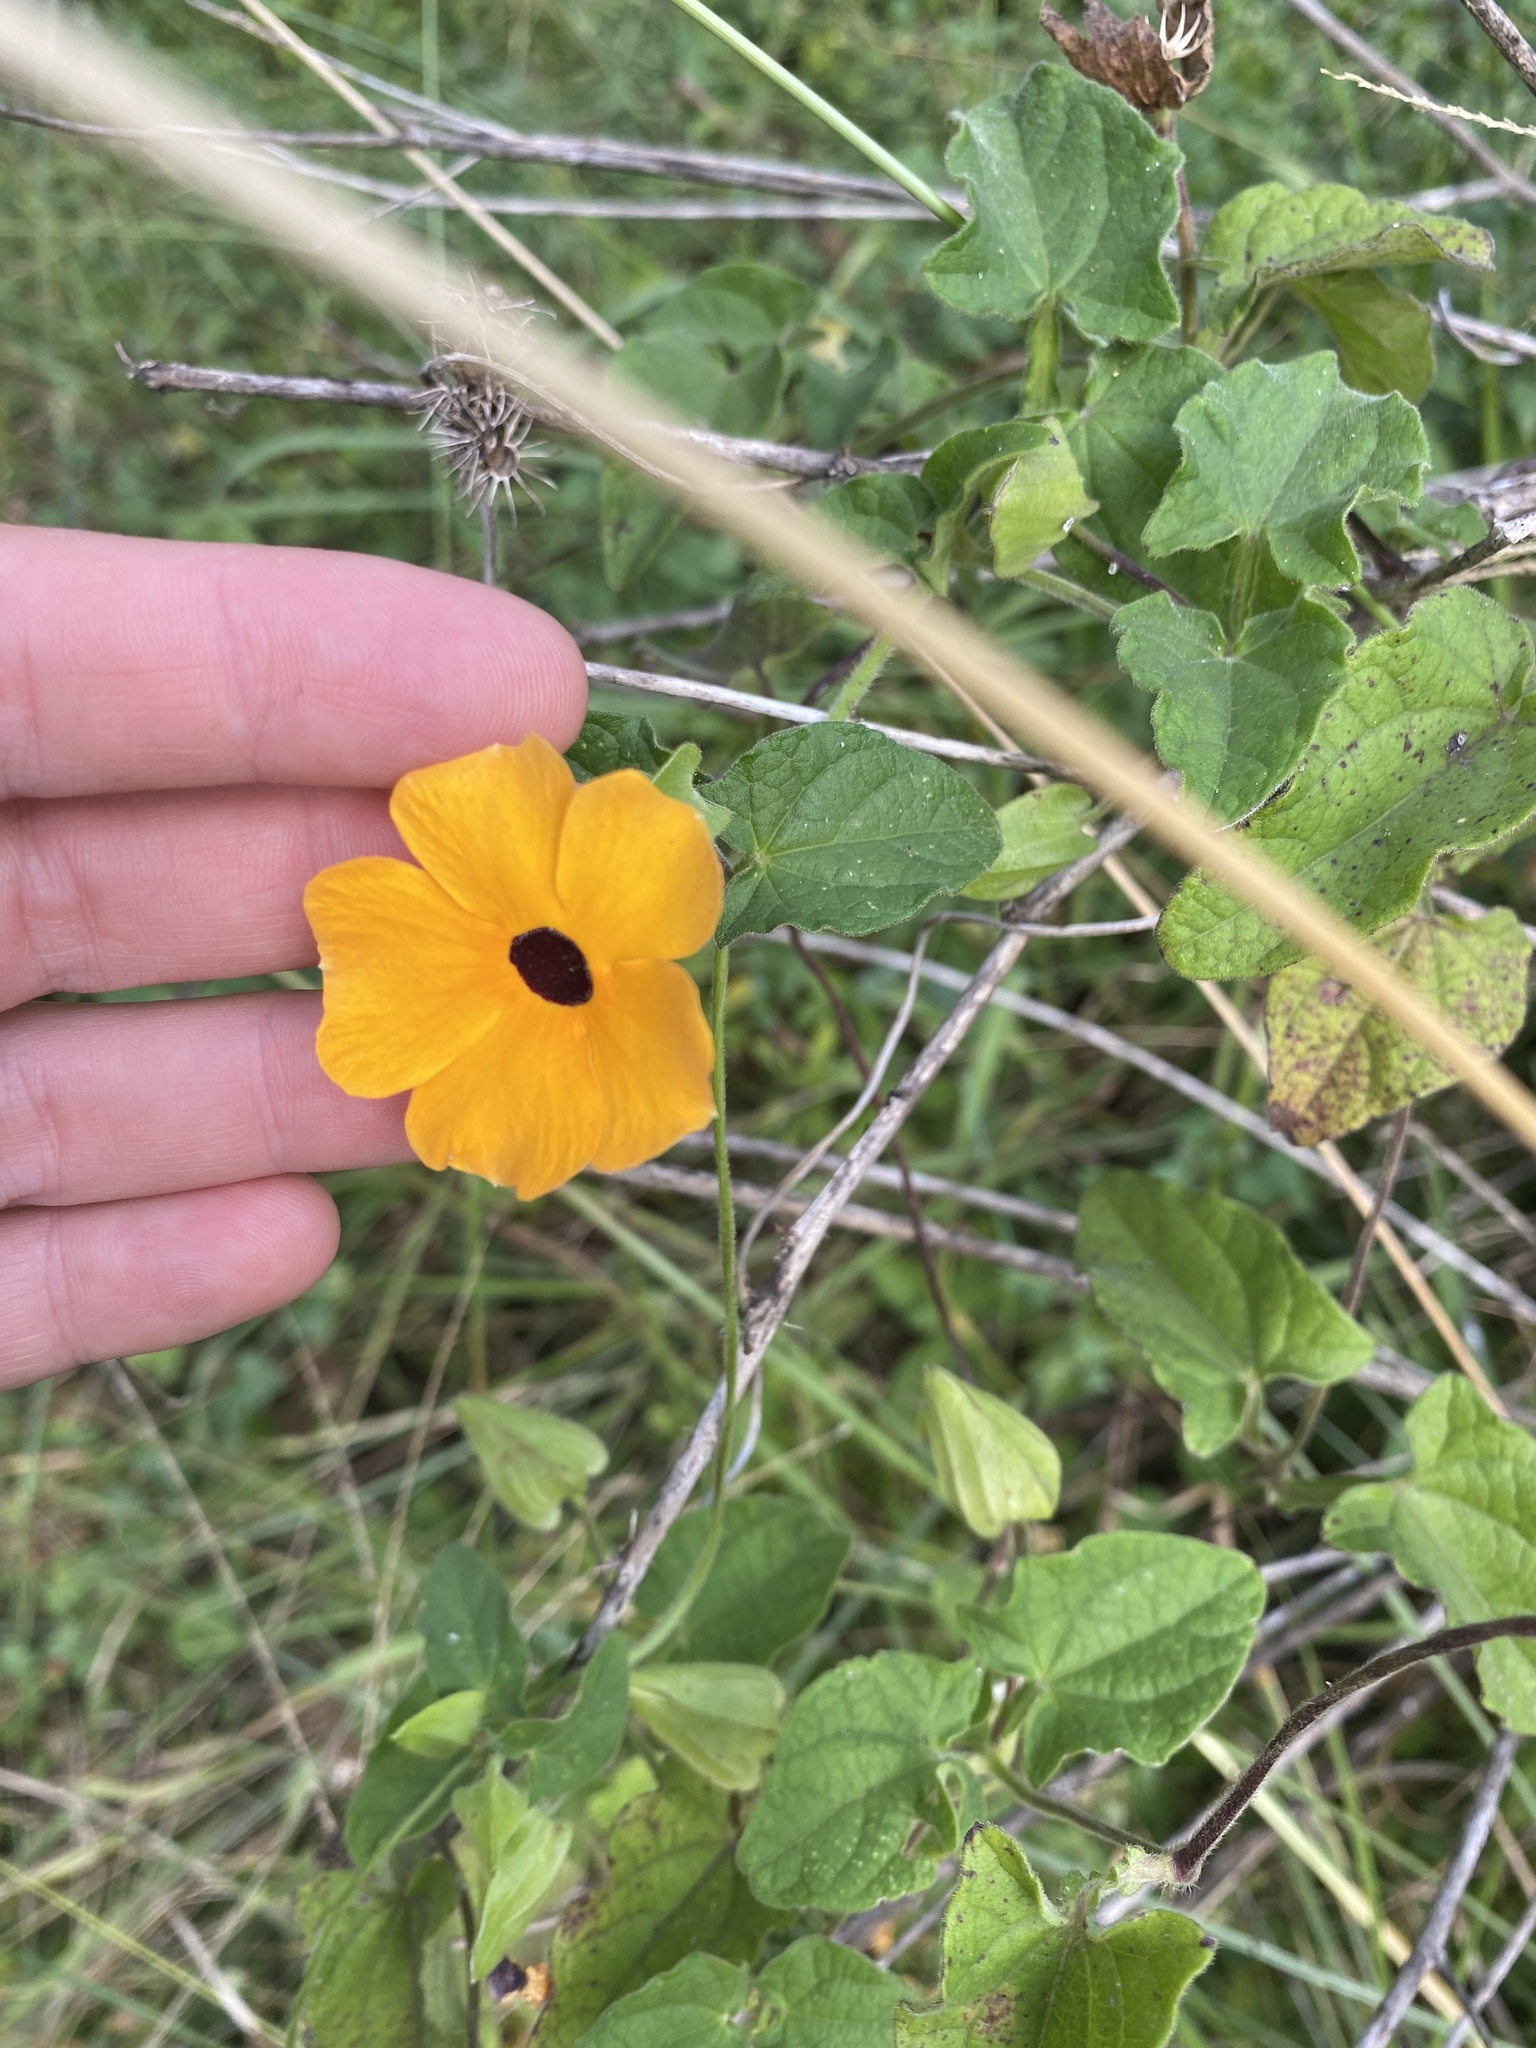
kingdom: Plantae
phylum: Tracheophyta
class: Magnoliopsida
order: Lamiales
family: Acanthaceae
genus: Thunbergia
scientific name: Thunbergia alata
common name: Blackeyed susan vine
